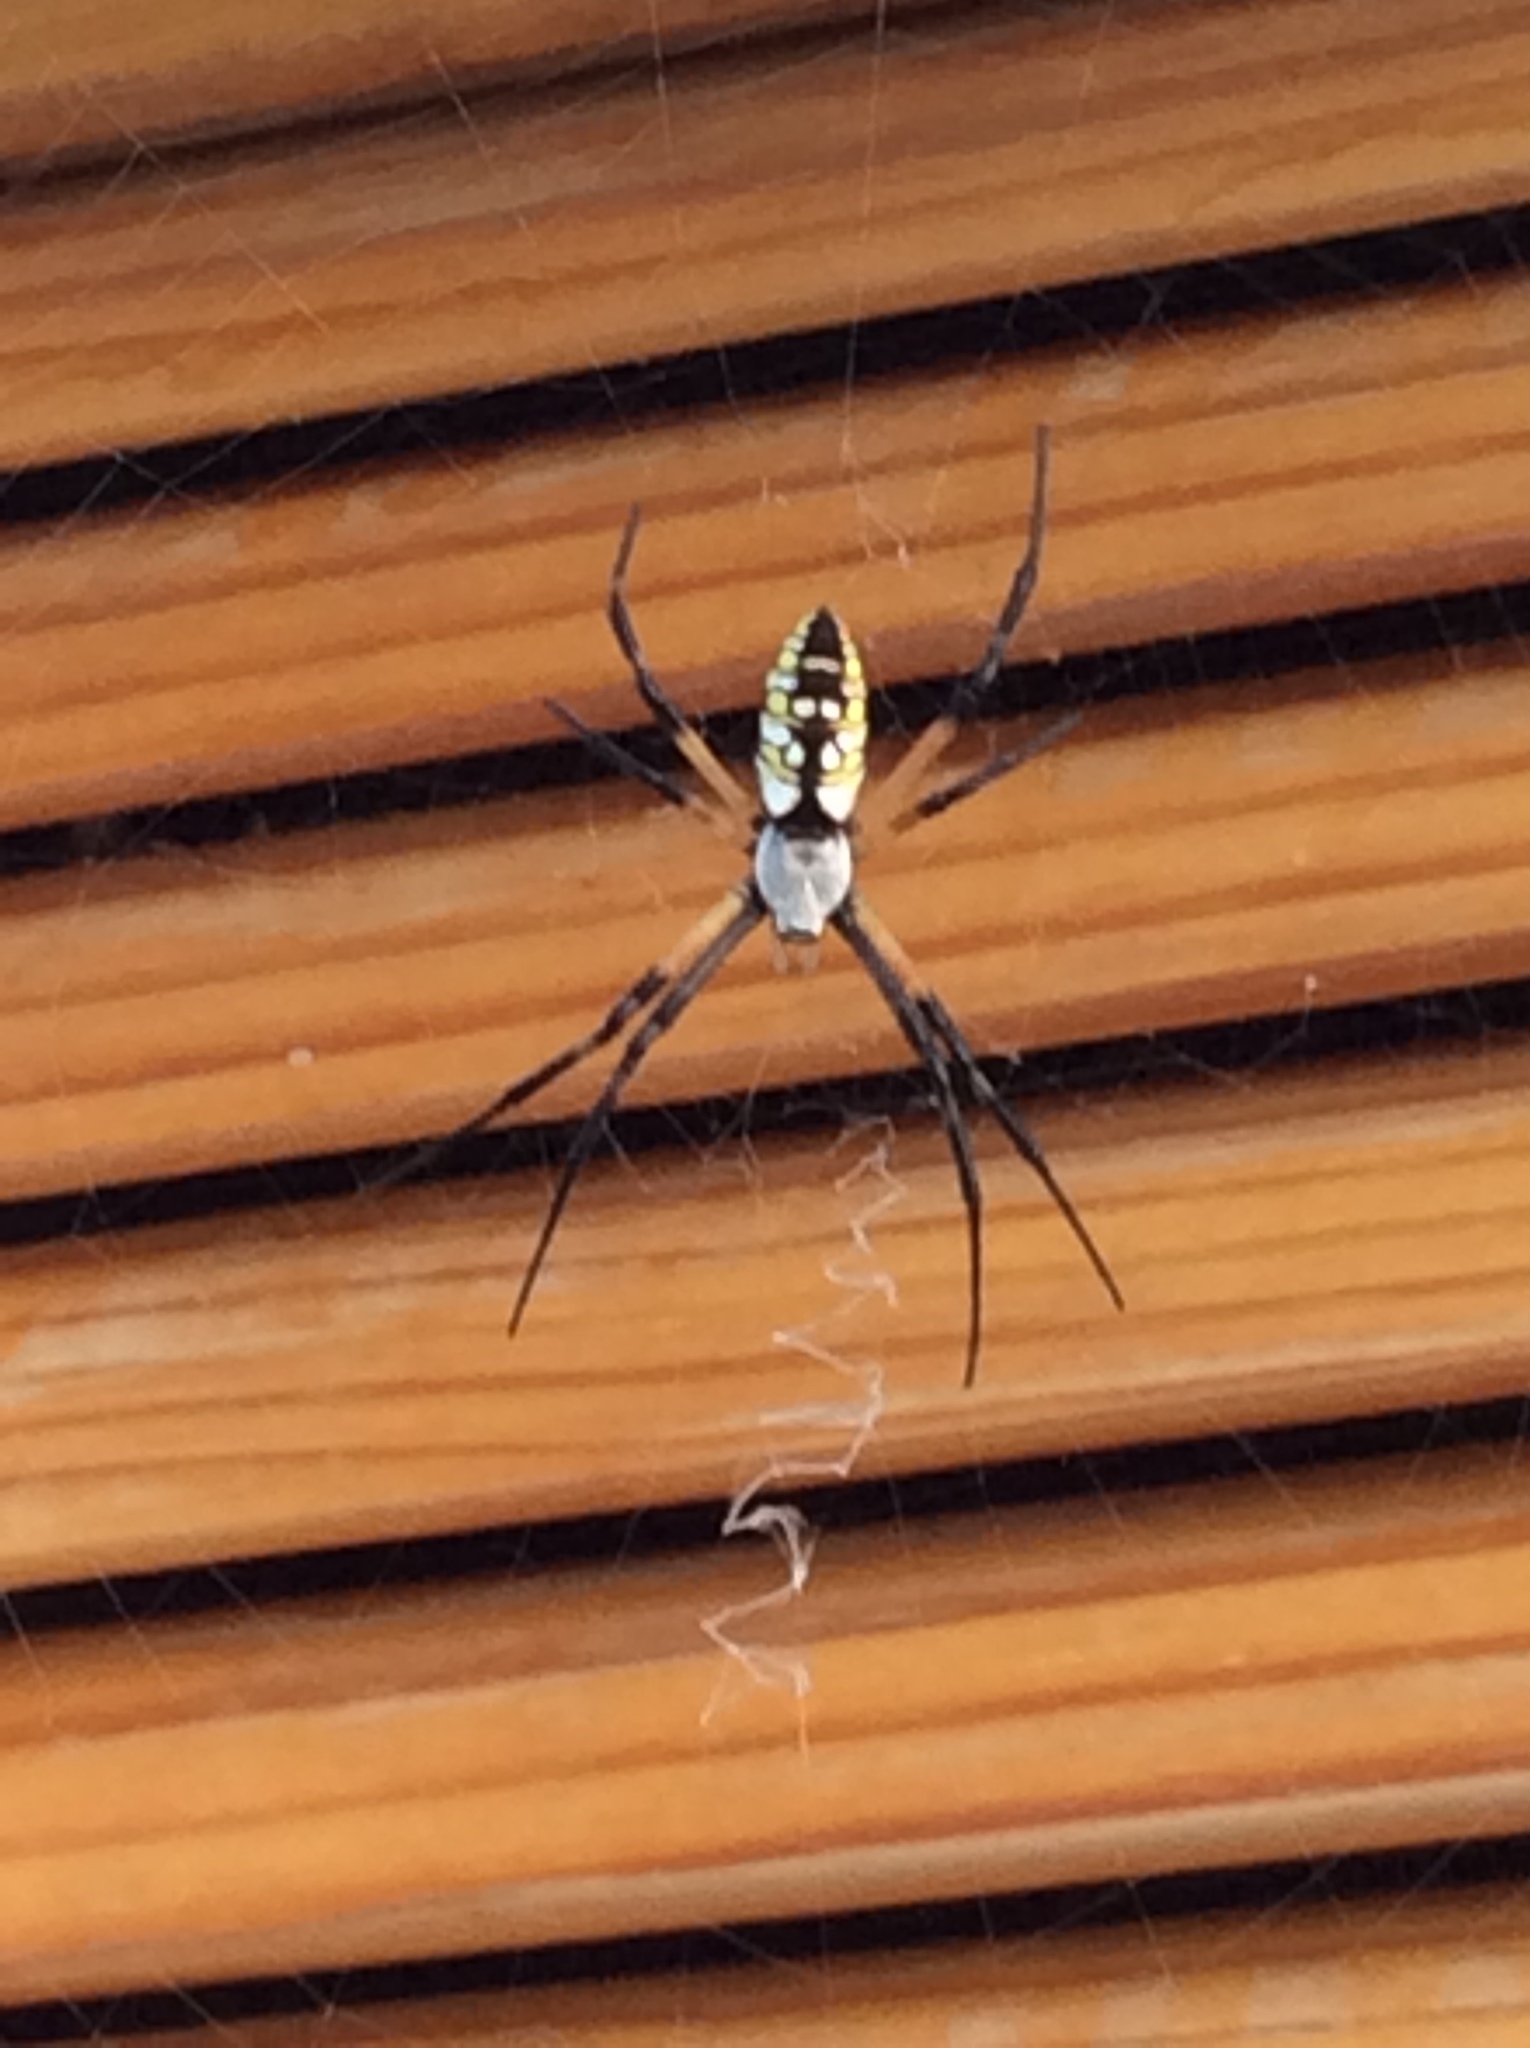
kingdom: Animalia
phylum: Arthropoda
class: Arachnida
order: Araneae
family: Araneidae
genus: Argiope
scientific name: Argiope aurantia
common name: Orb weavers
